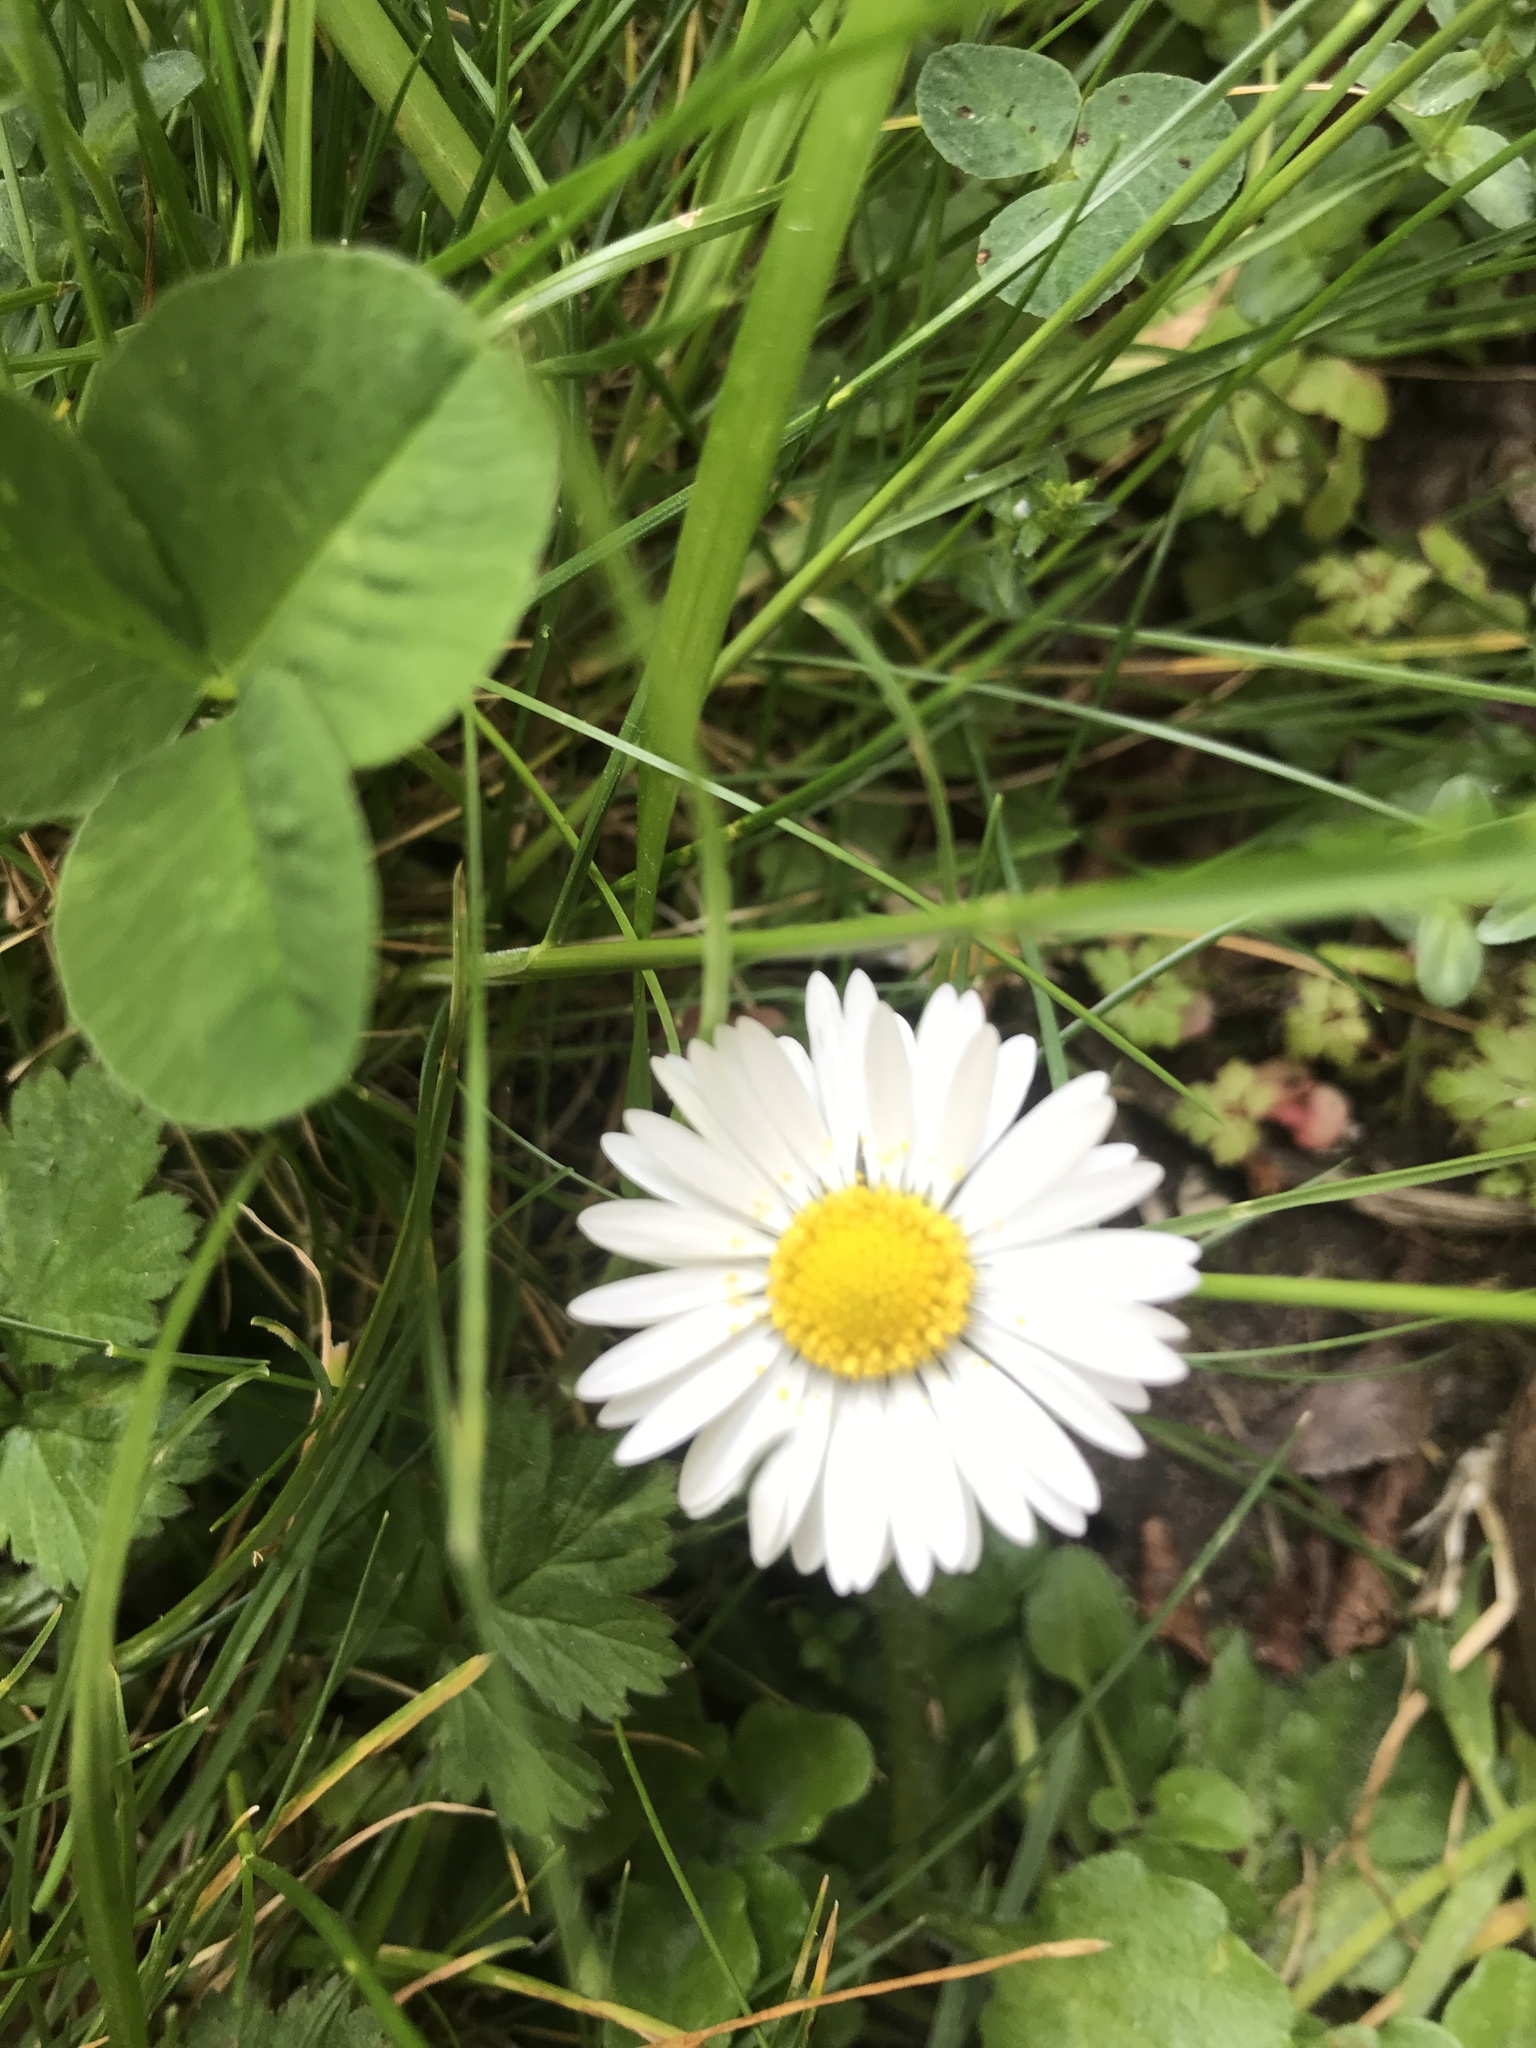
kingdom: Plantae
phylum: Tracheophyta
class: Magnoliopsida
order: Asterales
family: Asteraceae
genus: Bellis
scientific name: Bellis perennis
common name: Lawndaisy
